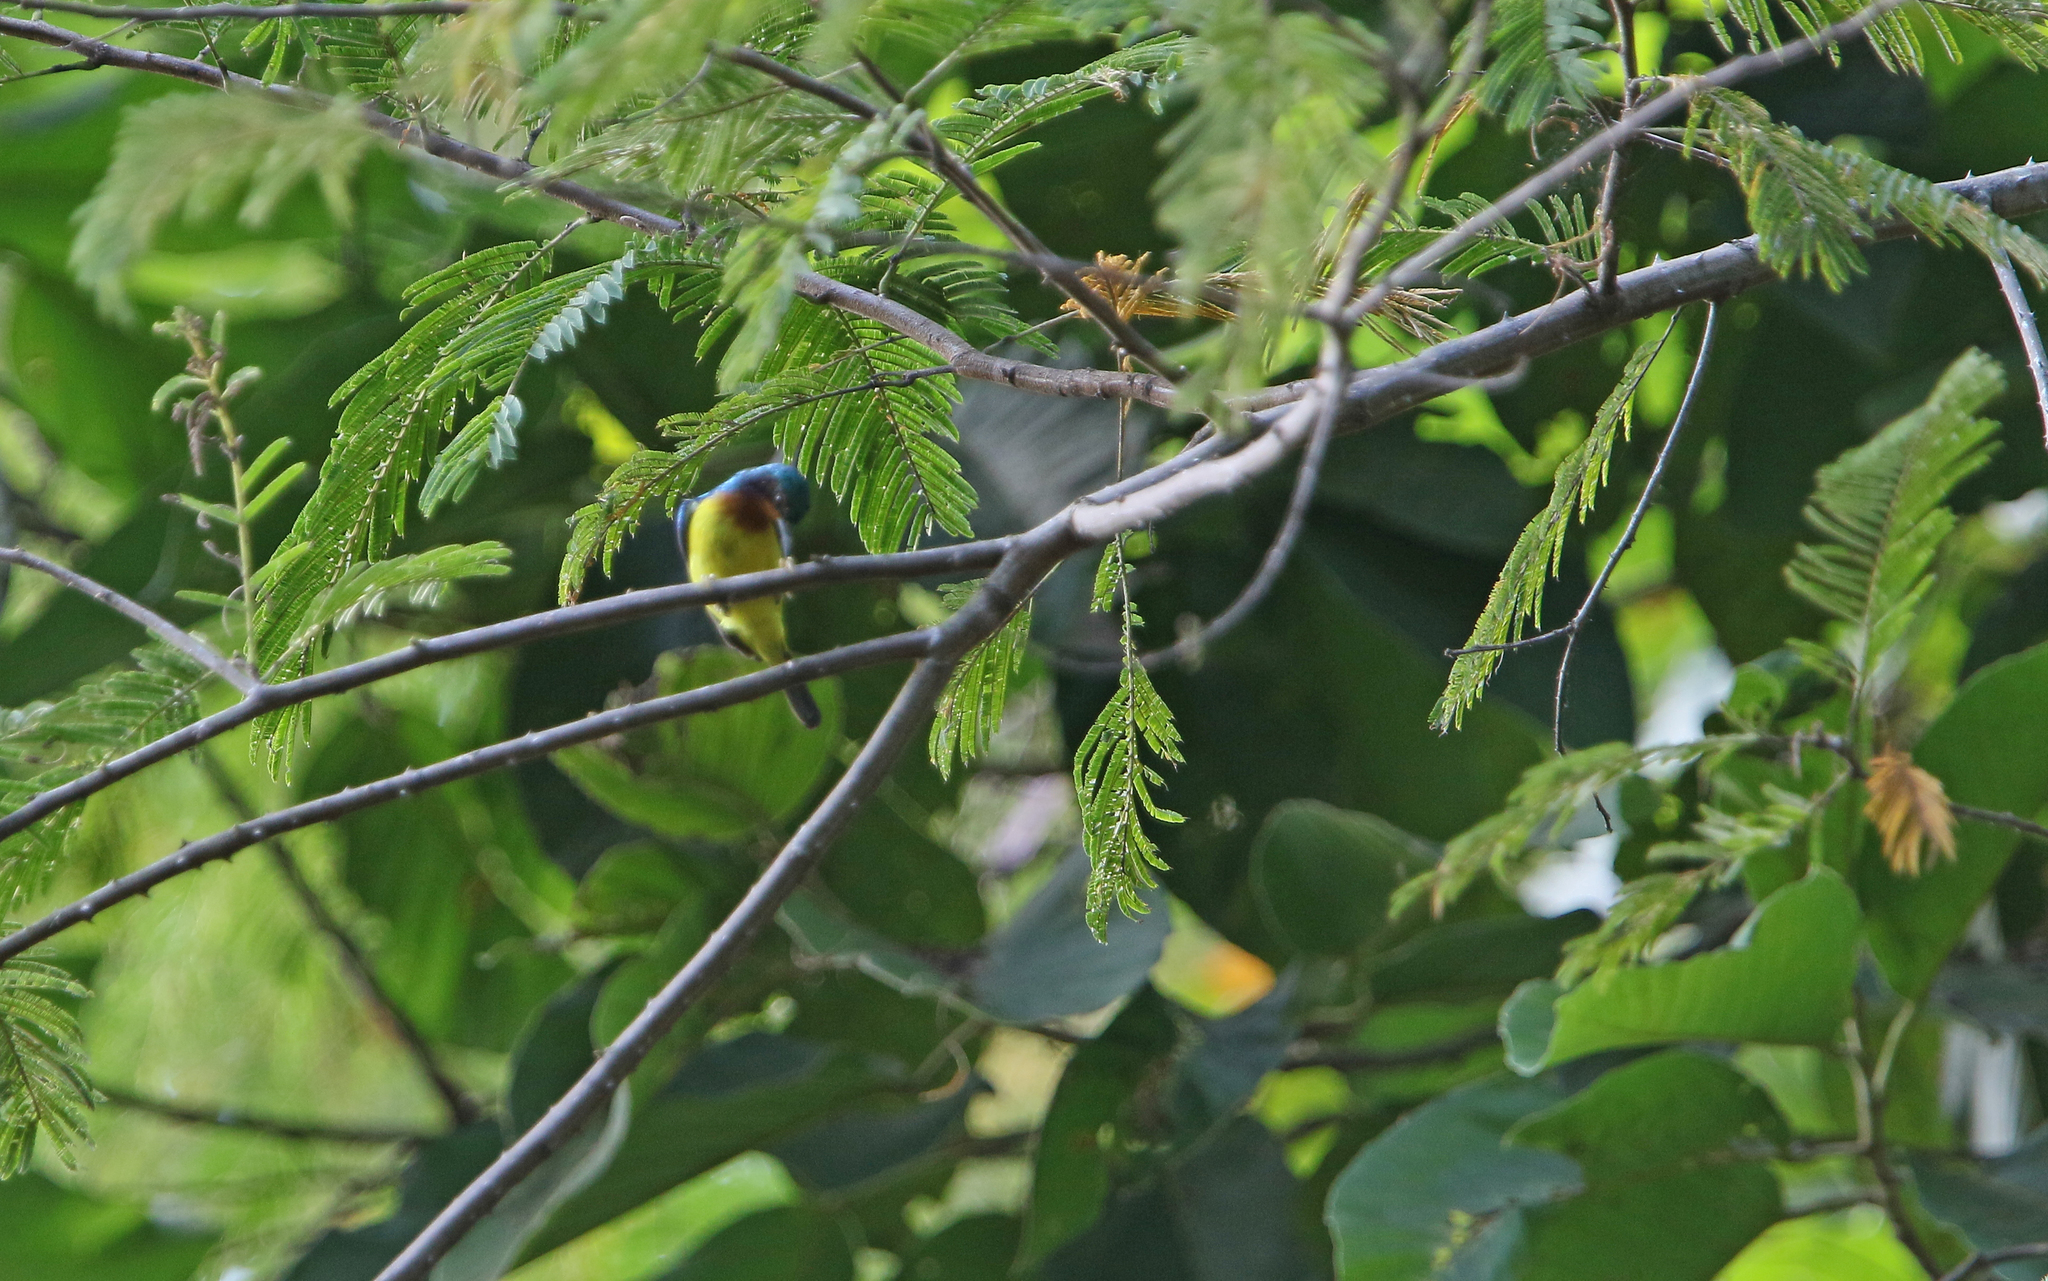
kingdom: Animalia
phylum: Chordata
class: Aves
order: Passeriformes
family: Nectariniidae
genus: Chalcoparia
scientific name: Chalcoparia singalensis
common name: Ruby-cheeked sunbird
